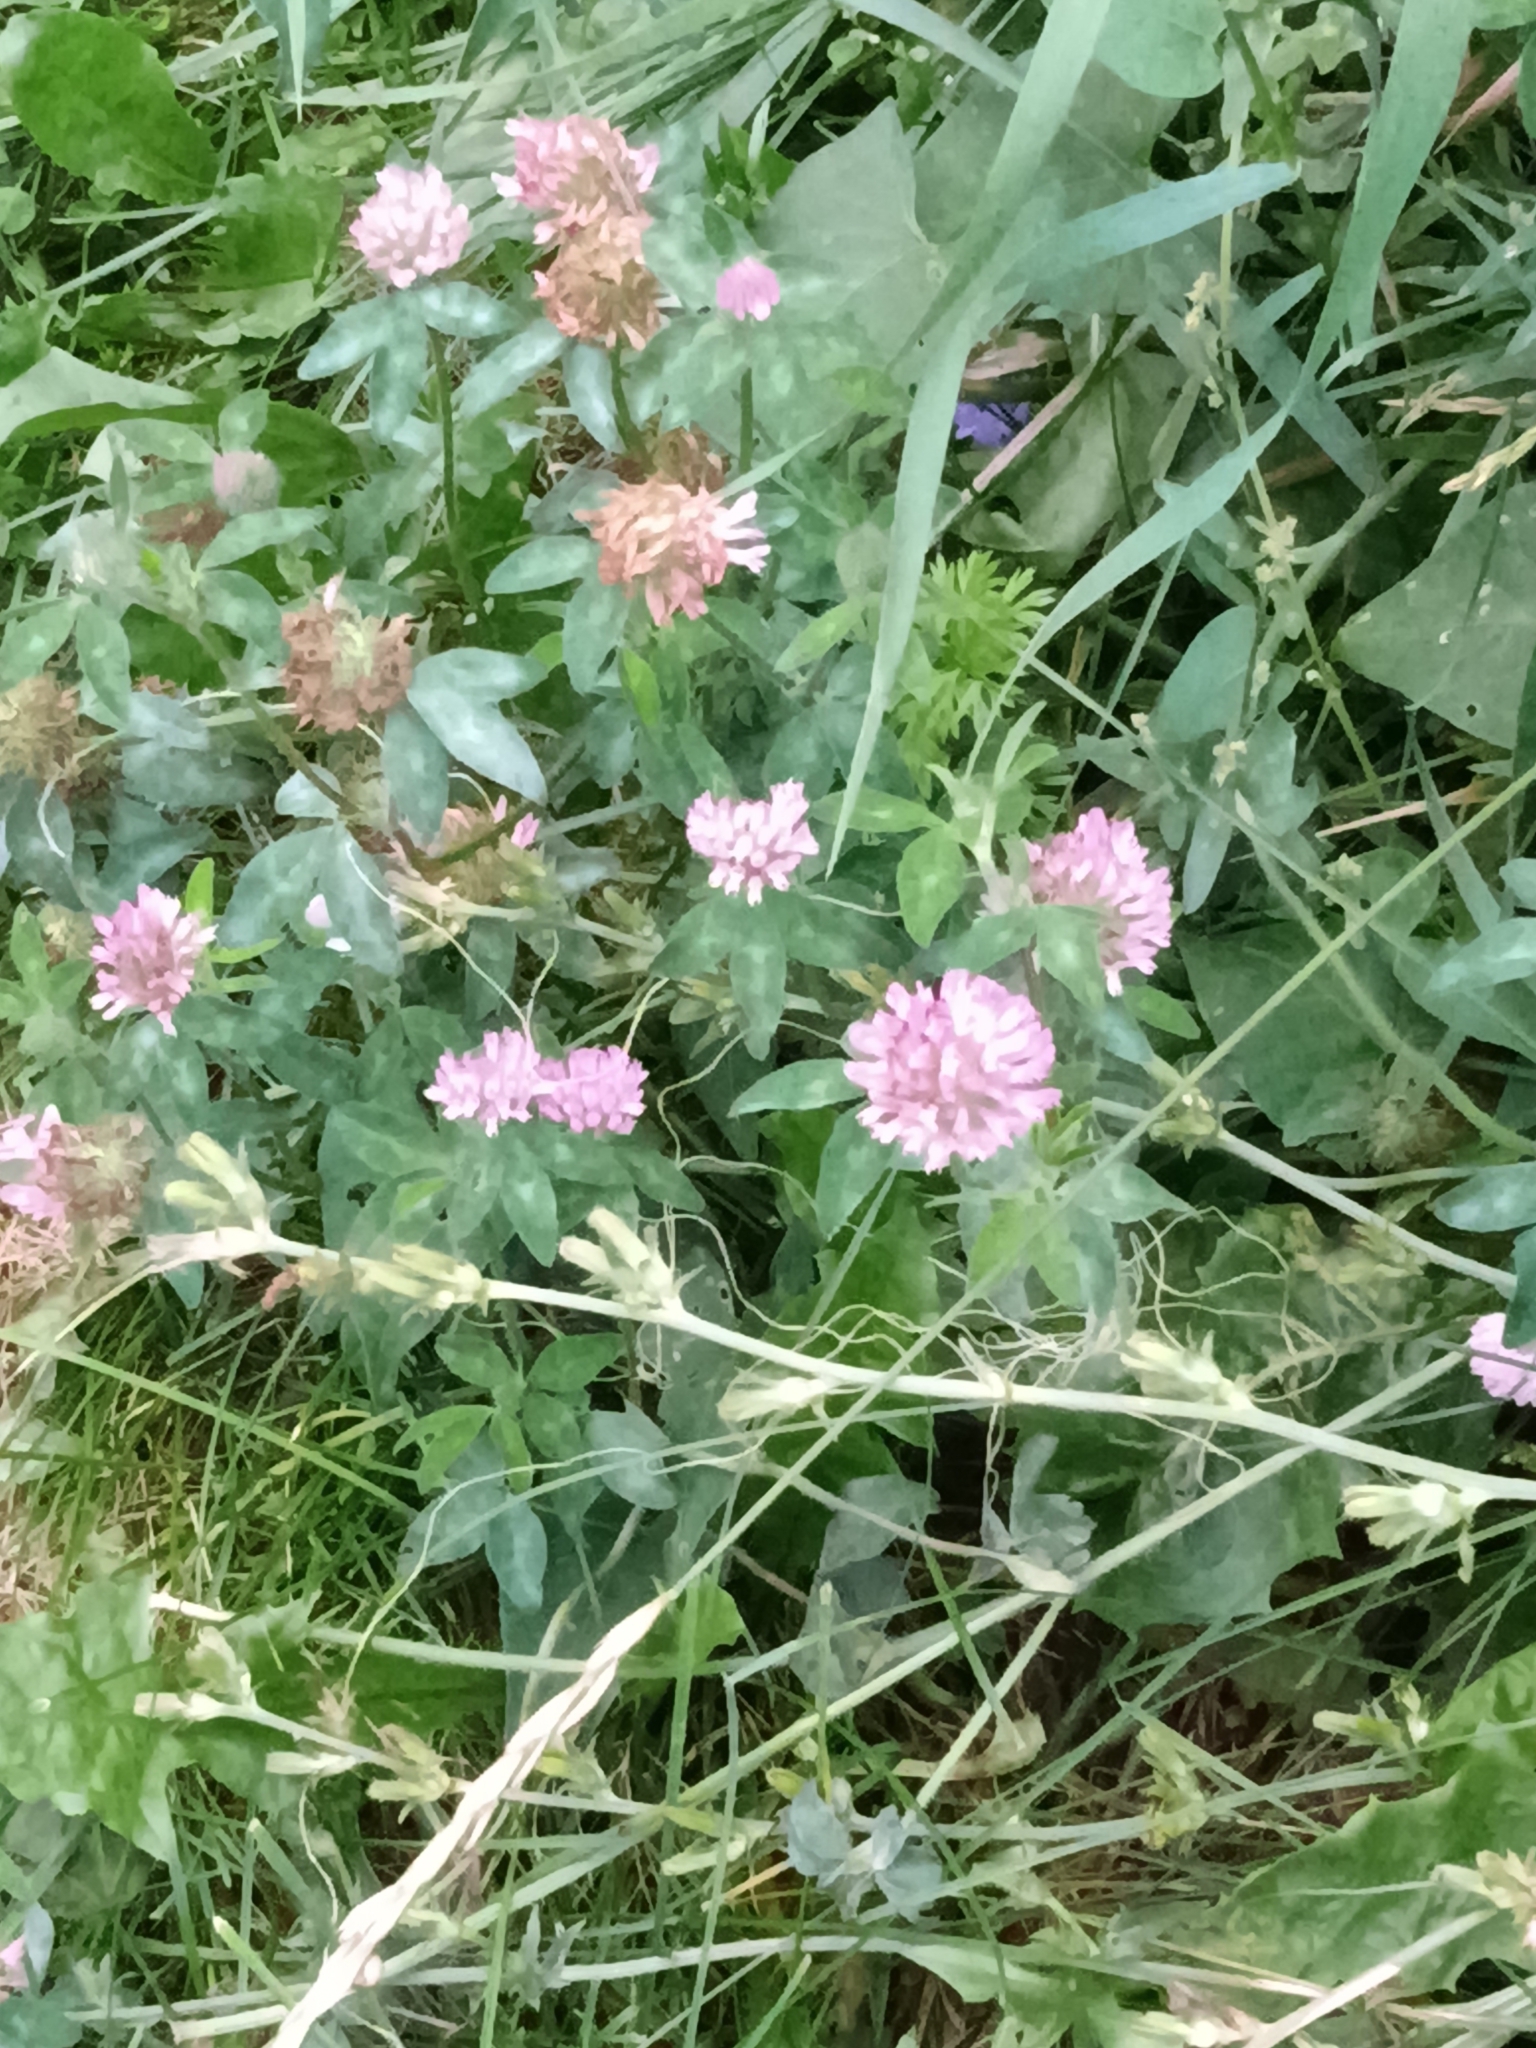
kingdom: Plantae
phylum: Tracheophyta
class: Magnoliopsida
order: Fabales
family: Fabaceae
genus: Trifolium
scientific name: Trifolium pratense
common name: Red clover
